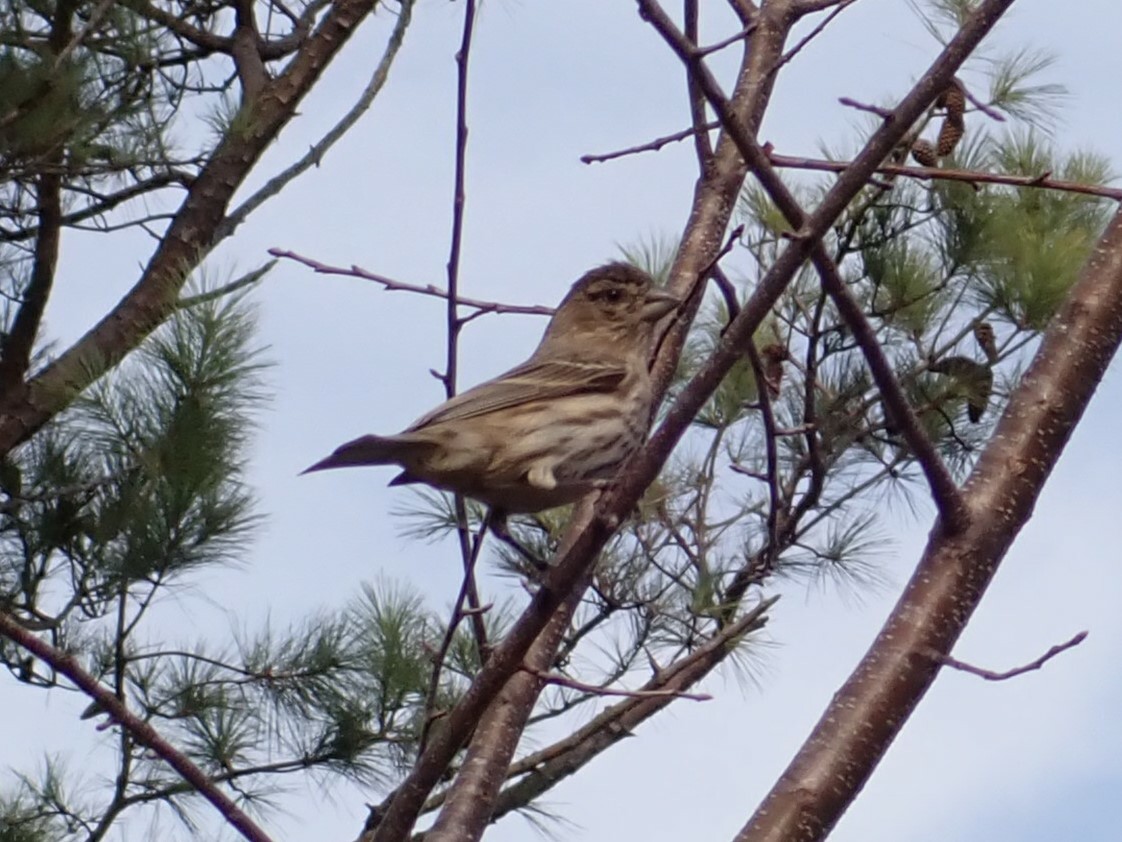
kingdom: Animalia
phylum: Chordata
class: Aves
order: Passeriformes
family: Fringillidae
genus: Haemorhous
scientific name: Haemorhous mexicanus
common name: House finch
